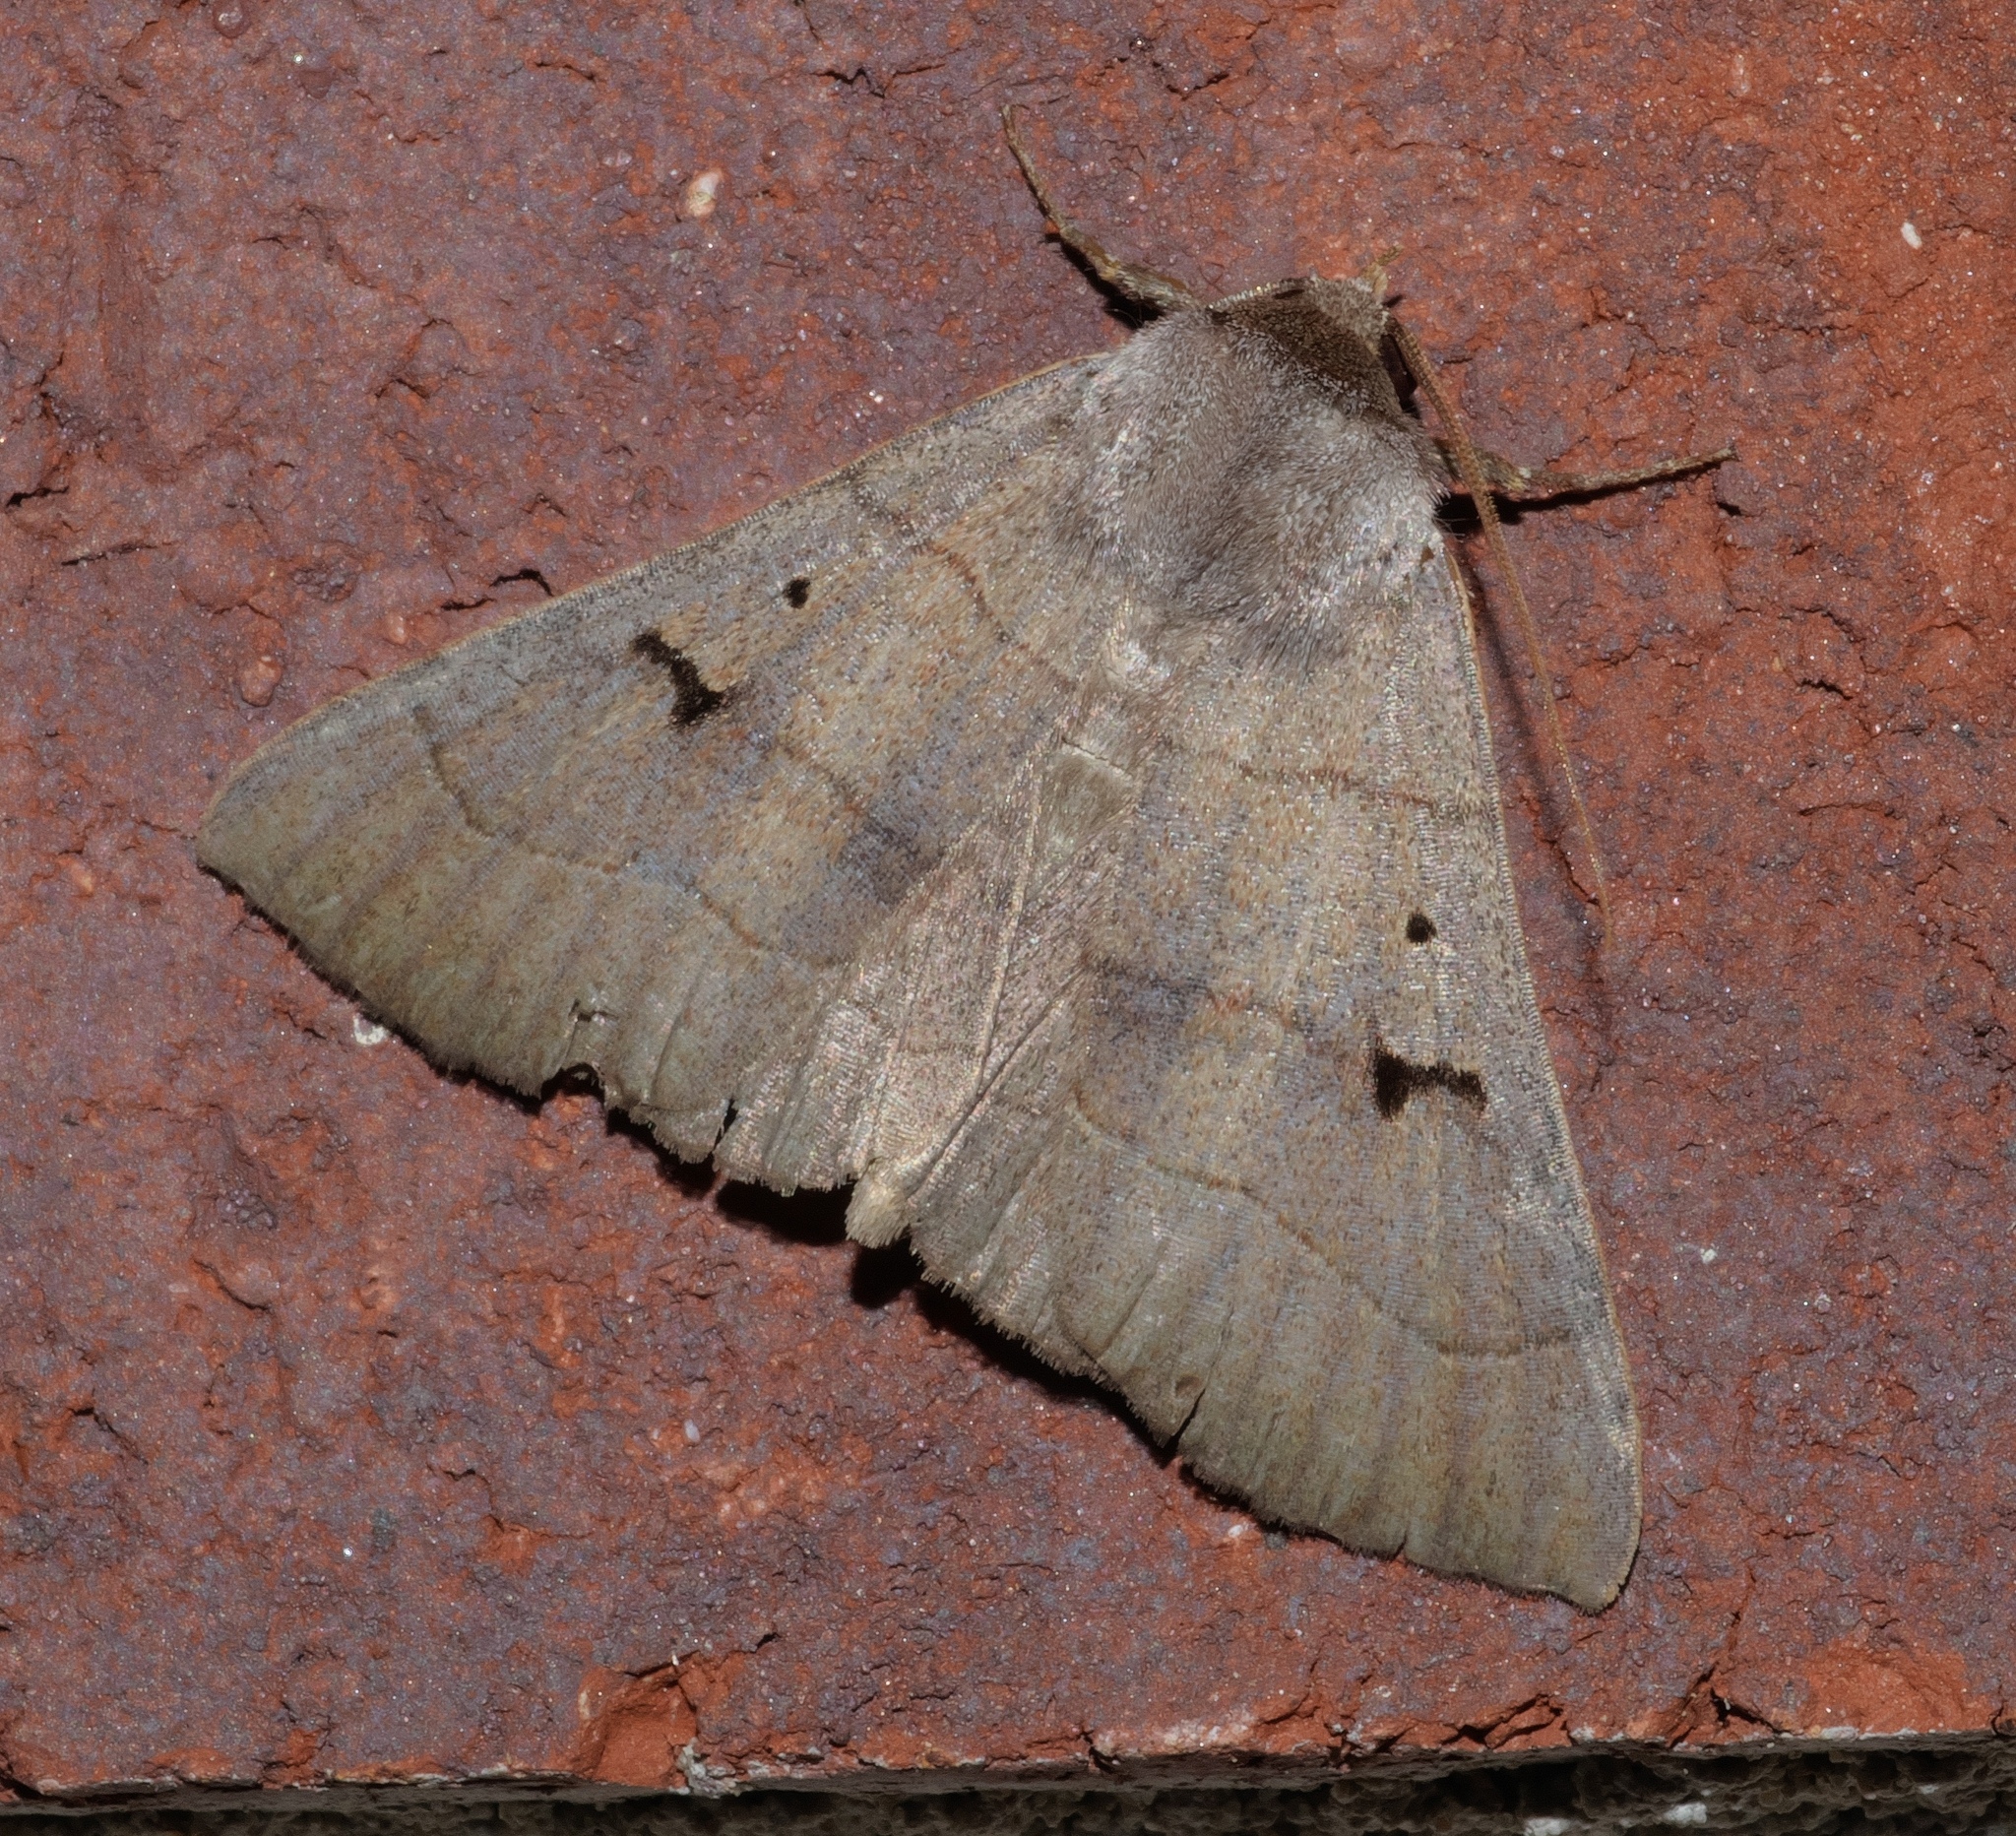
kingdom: Animalia
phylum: Arthropoda
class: Insecta
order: Lepidoptera
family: Erebidae
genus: Panopoda
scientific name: Panopoda carneicosta
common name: Brown panopoda moth
